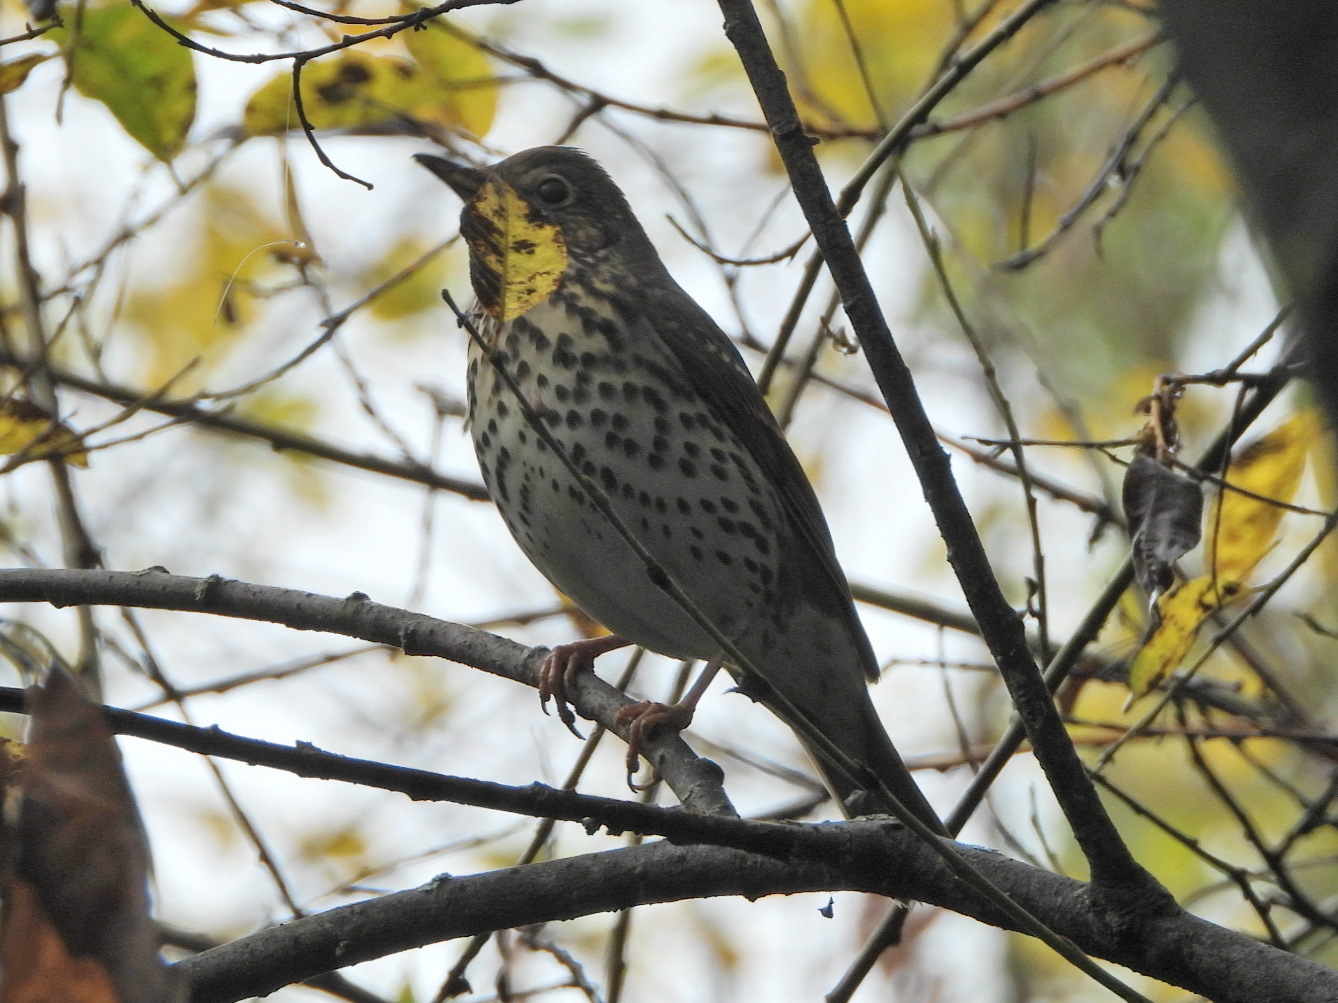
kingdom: Animalia
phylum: Chordata
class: Aves
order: Passeriformes
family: Turdidae
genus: Turdus
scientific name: Turdus philomelos
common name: Song thrush
